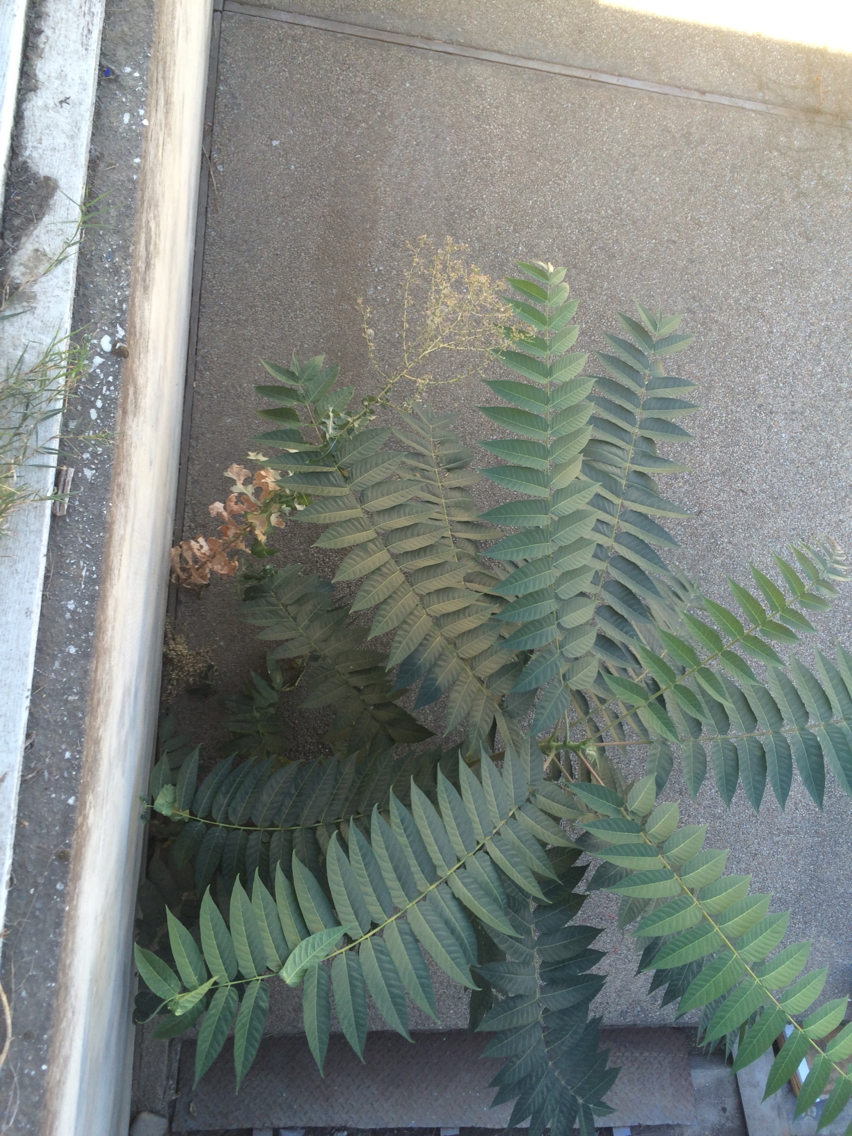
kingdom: Plantae
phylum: Tracheophyta
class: Magnoliopsida
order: Sapindales
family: Simaroubaceae
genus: Ailanthus
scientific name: Ailanthus altissima
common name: Tree-of-heaven
